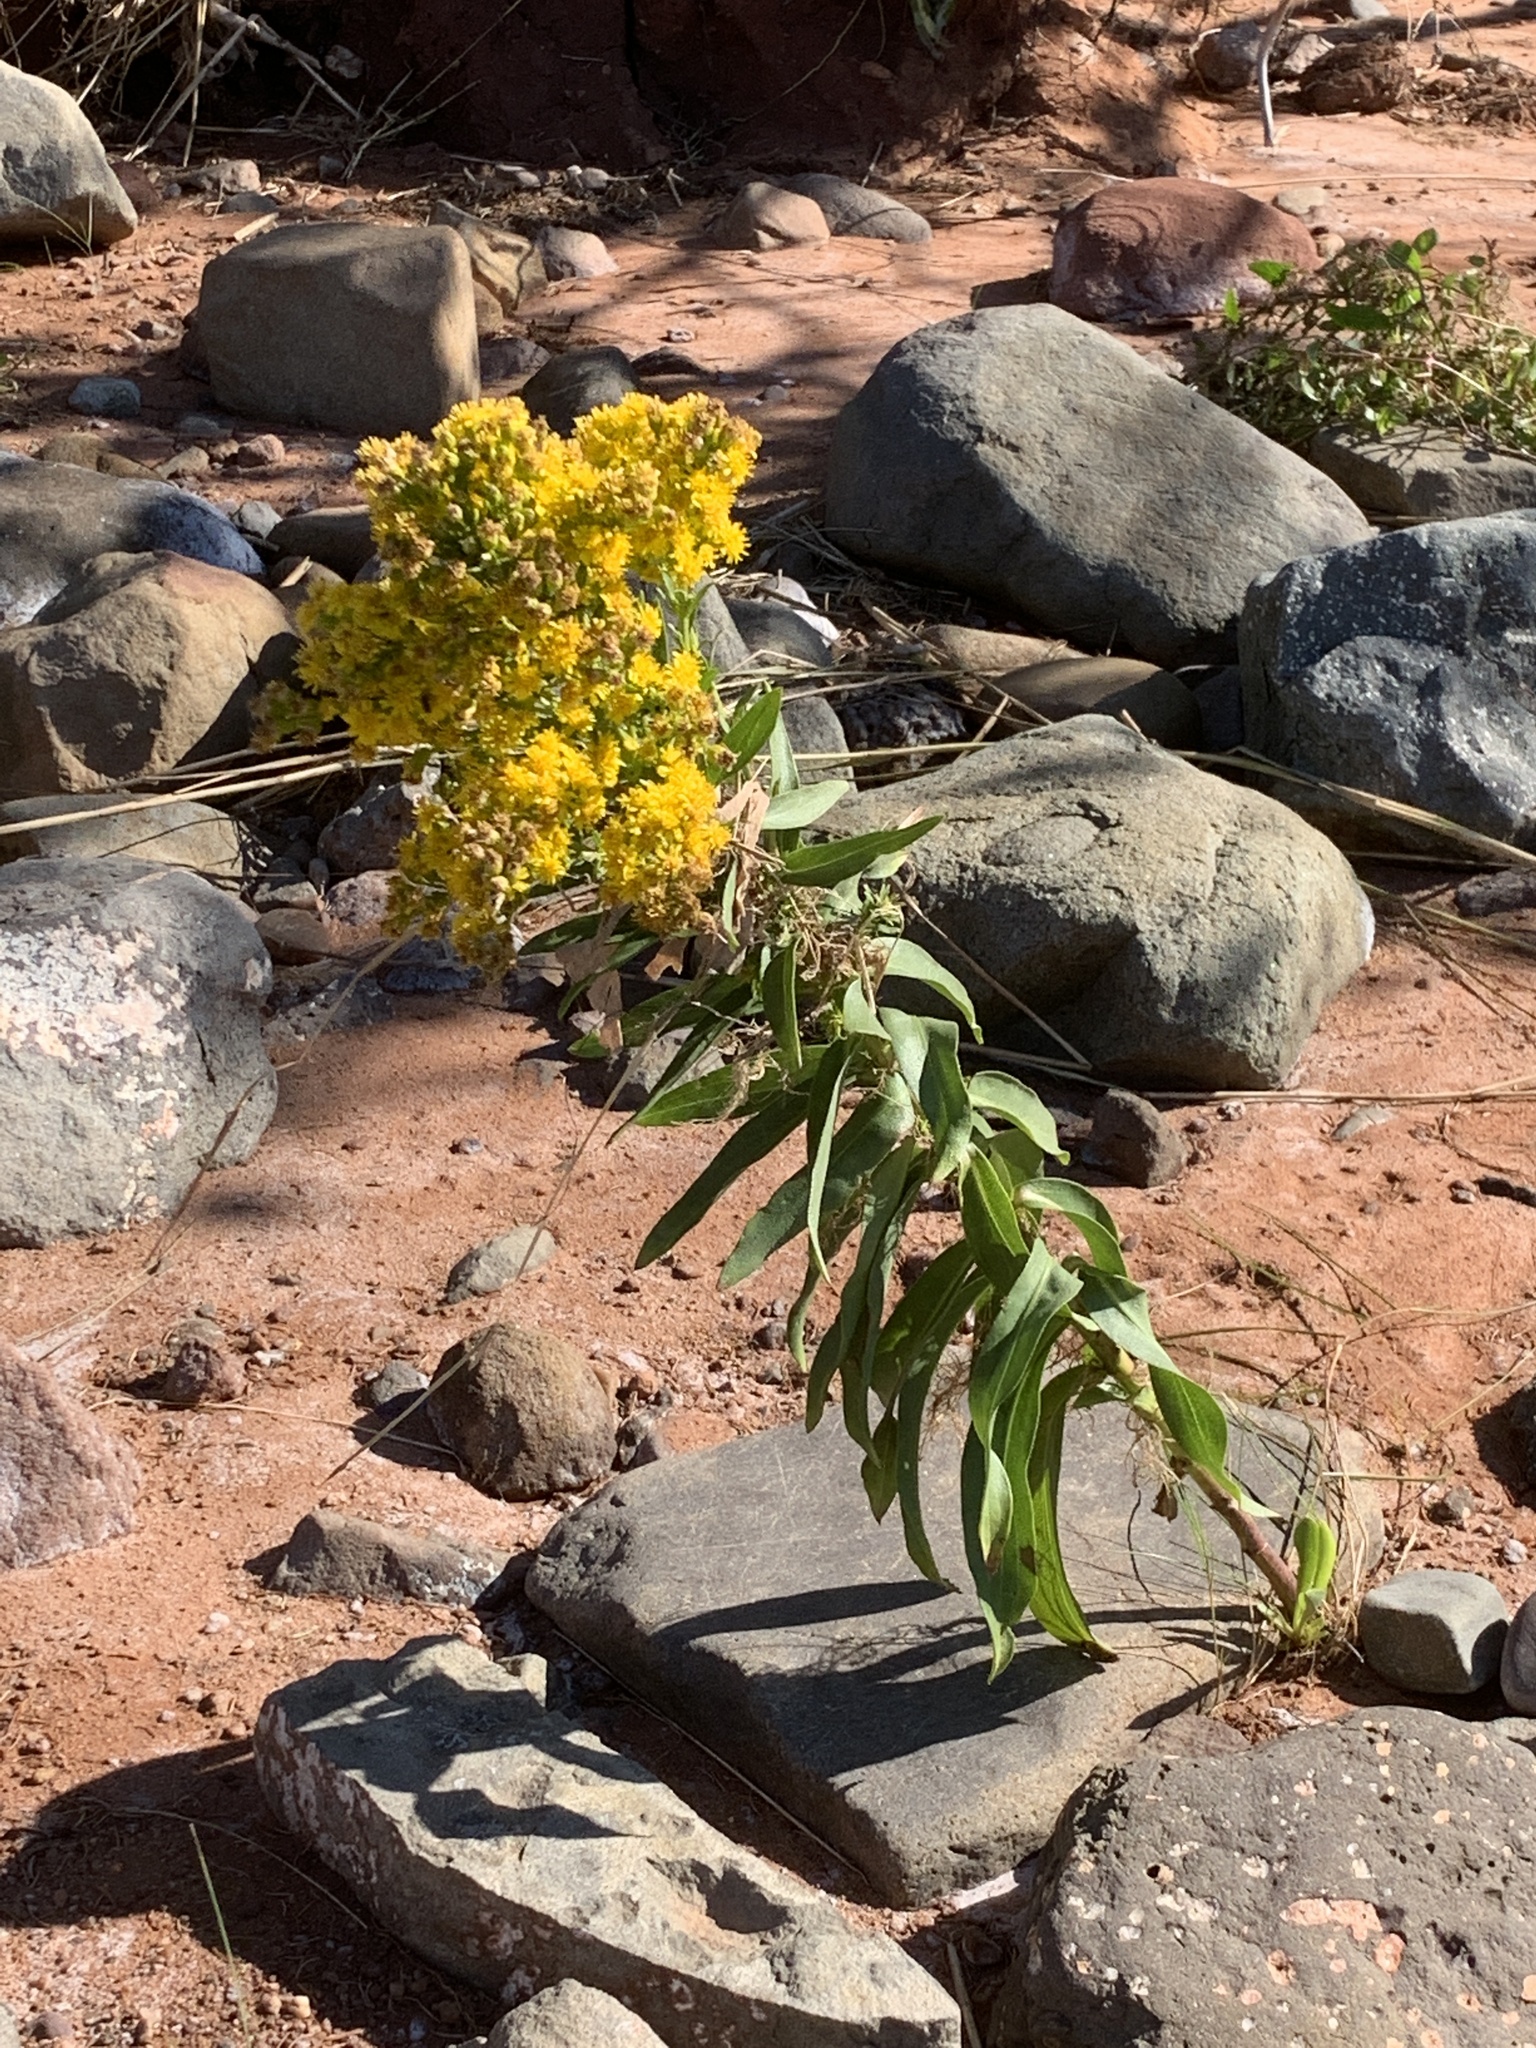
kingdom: Plantae
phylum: Tracheophyta
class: Magnoliopsida
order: Asterales
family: Asteraceae
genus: Solidago
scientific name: Solidago sempervirens
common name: Salt-marsh goldenrod
